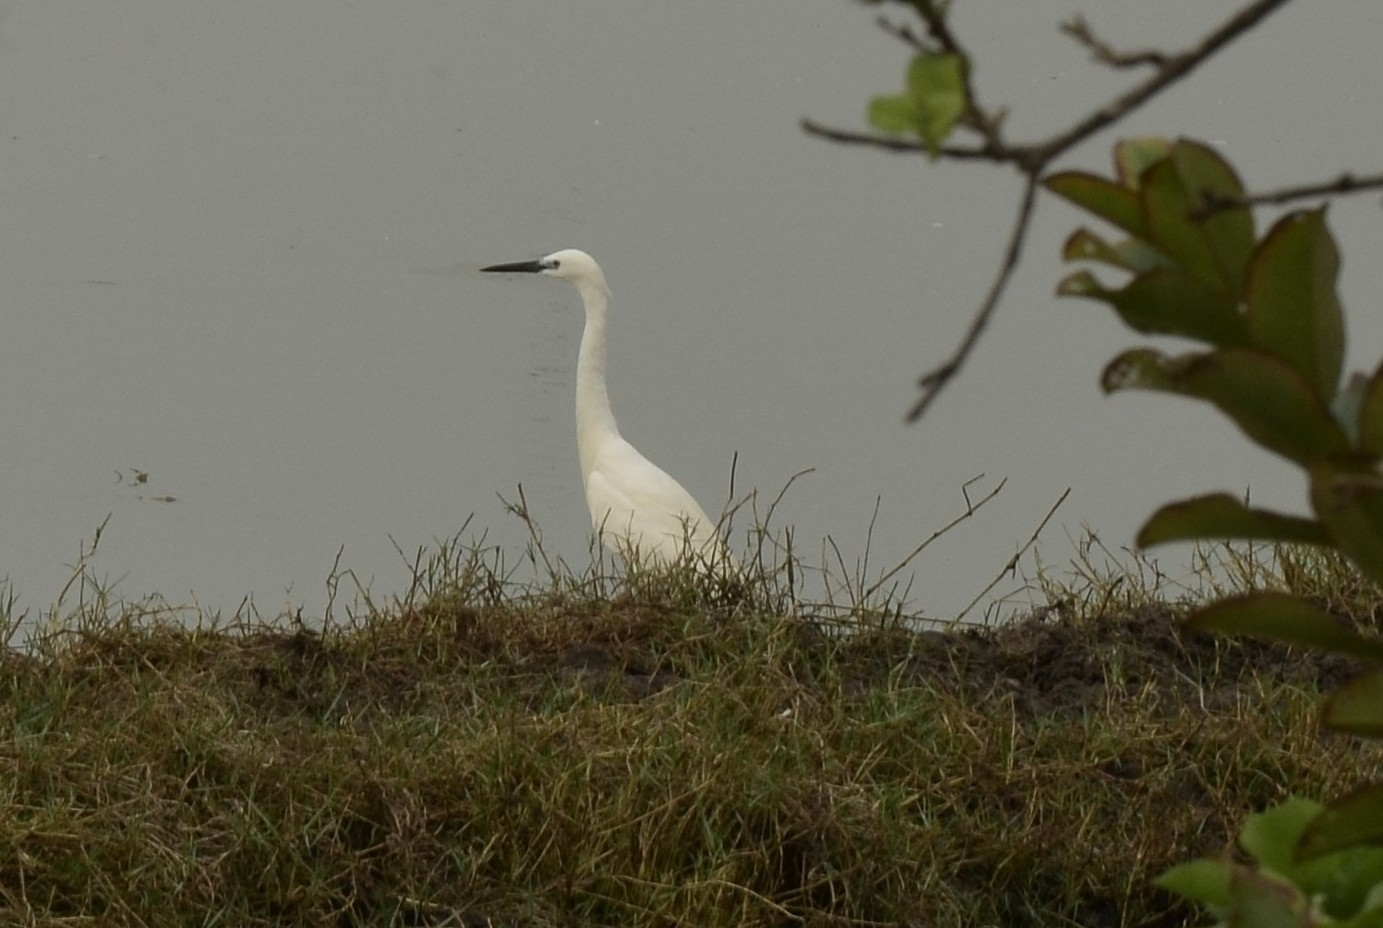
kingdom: Animalia
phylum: Chordata
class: Aves
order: Pelecaniformes
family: Ardeidae
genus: Egretta
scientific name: Egretta garzetta
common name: Little egret
